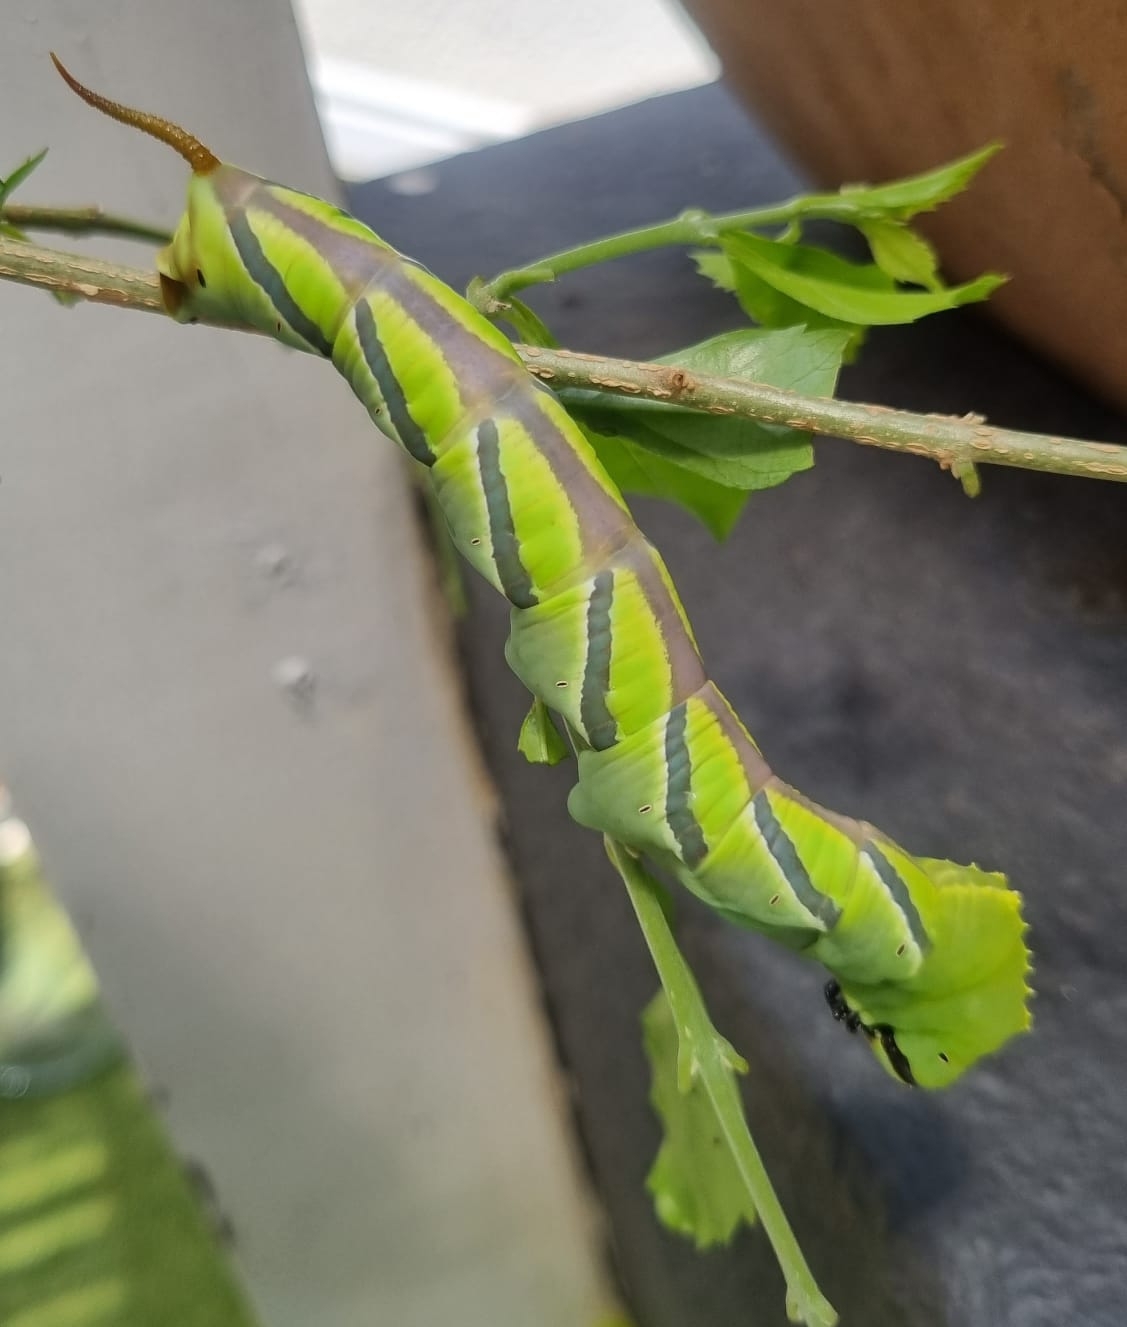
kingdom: Animalia
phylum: Arthropoda
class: Insecta
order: Lepidoptera
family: Sphingidae
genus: Coelonia
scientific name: Coelonia fulvinotata
